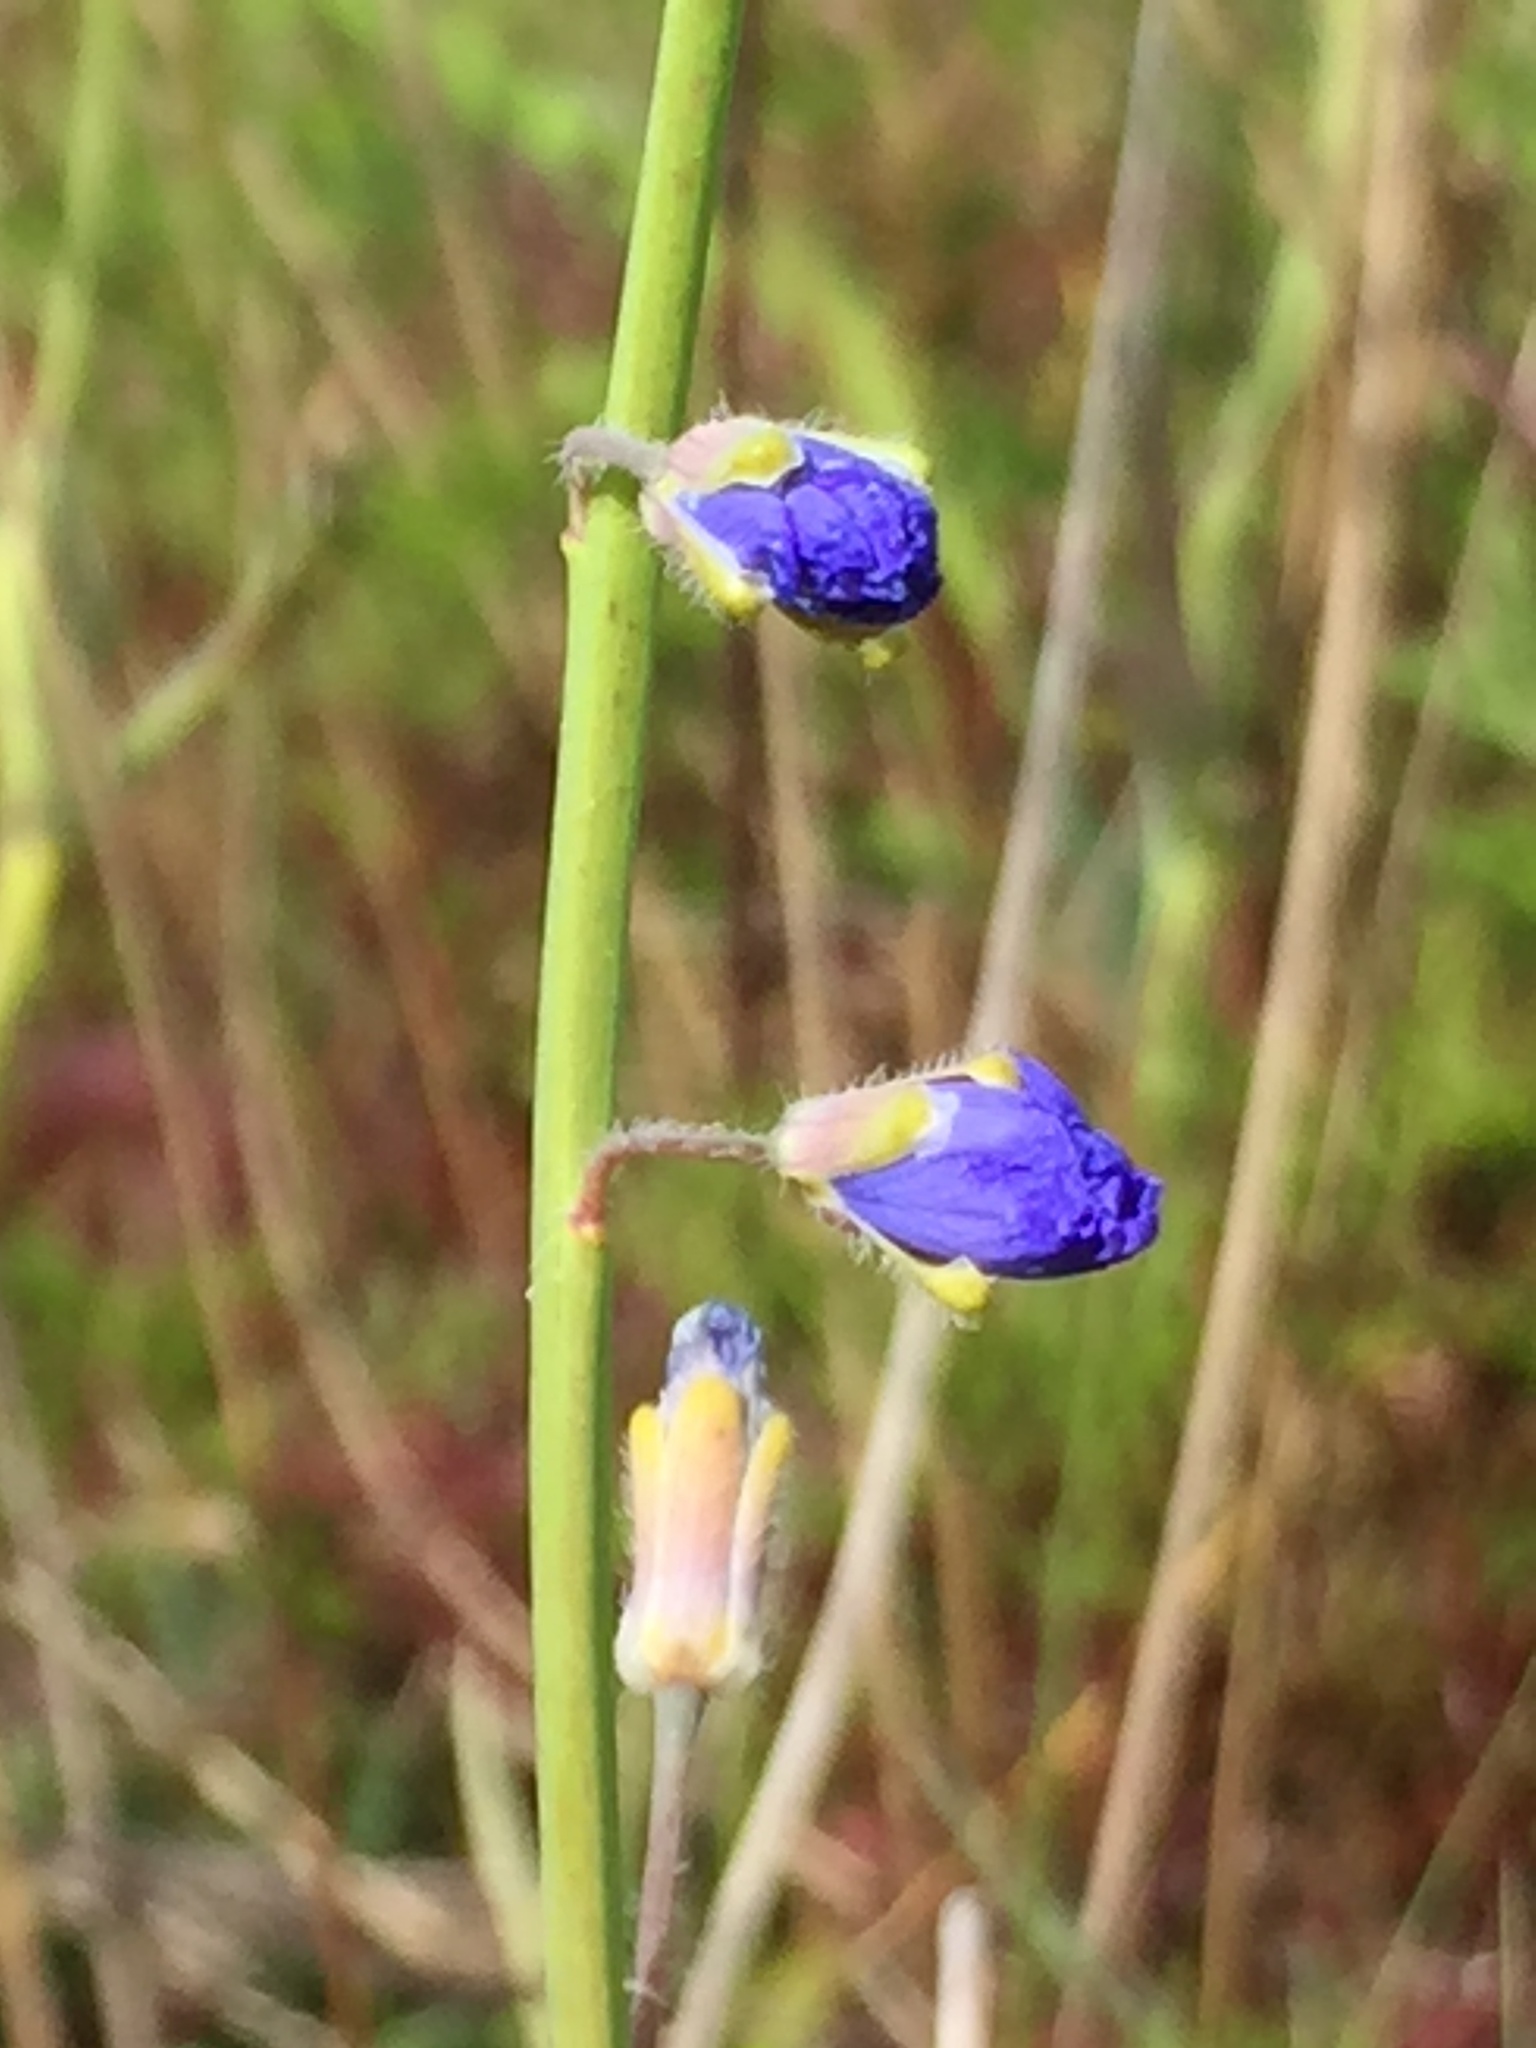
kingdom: Plantae
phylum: Tracheophyta
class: Magnoliopsida
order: Brassicales
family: Brassicaceae
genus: Heliophila
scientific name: Heliophila africana
